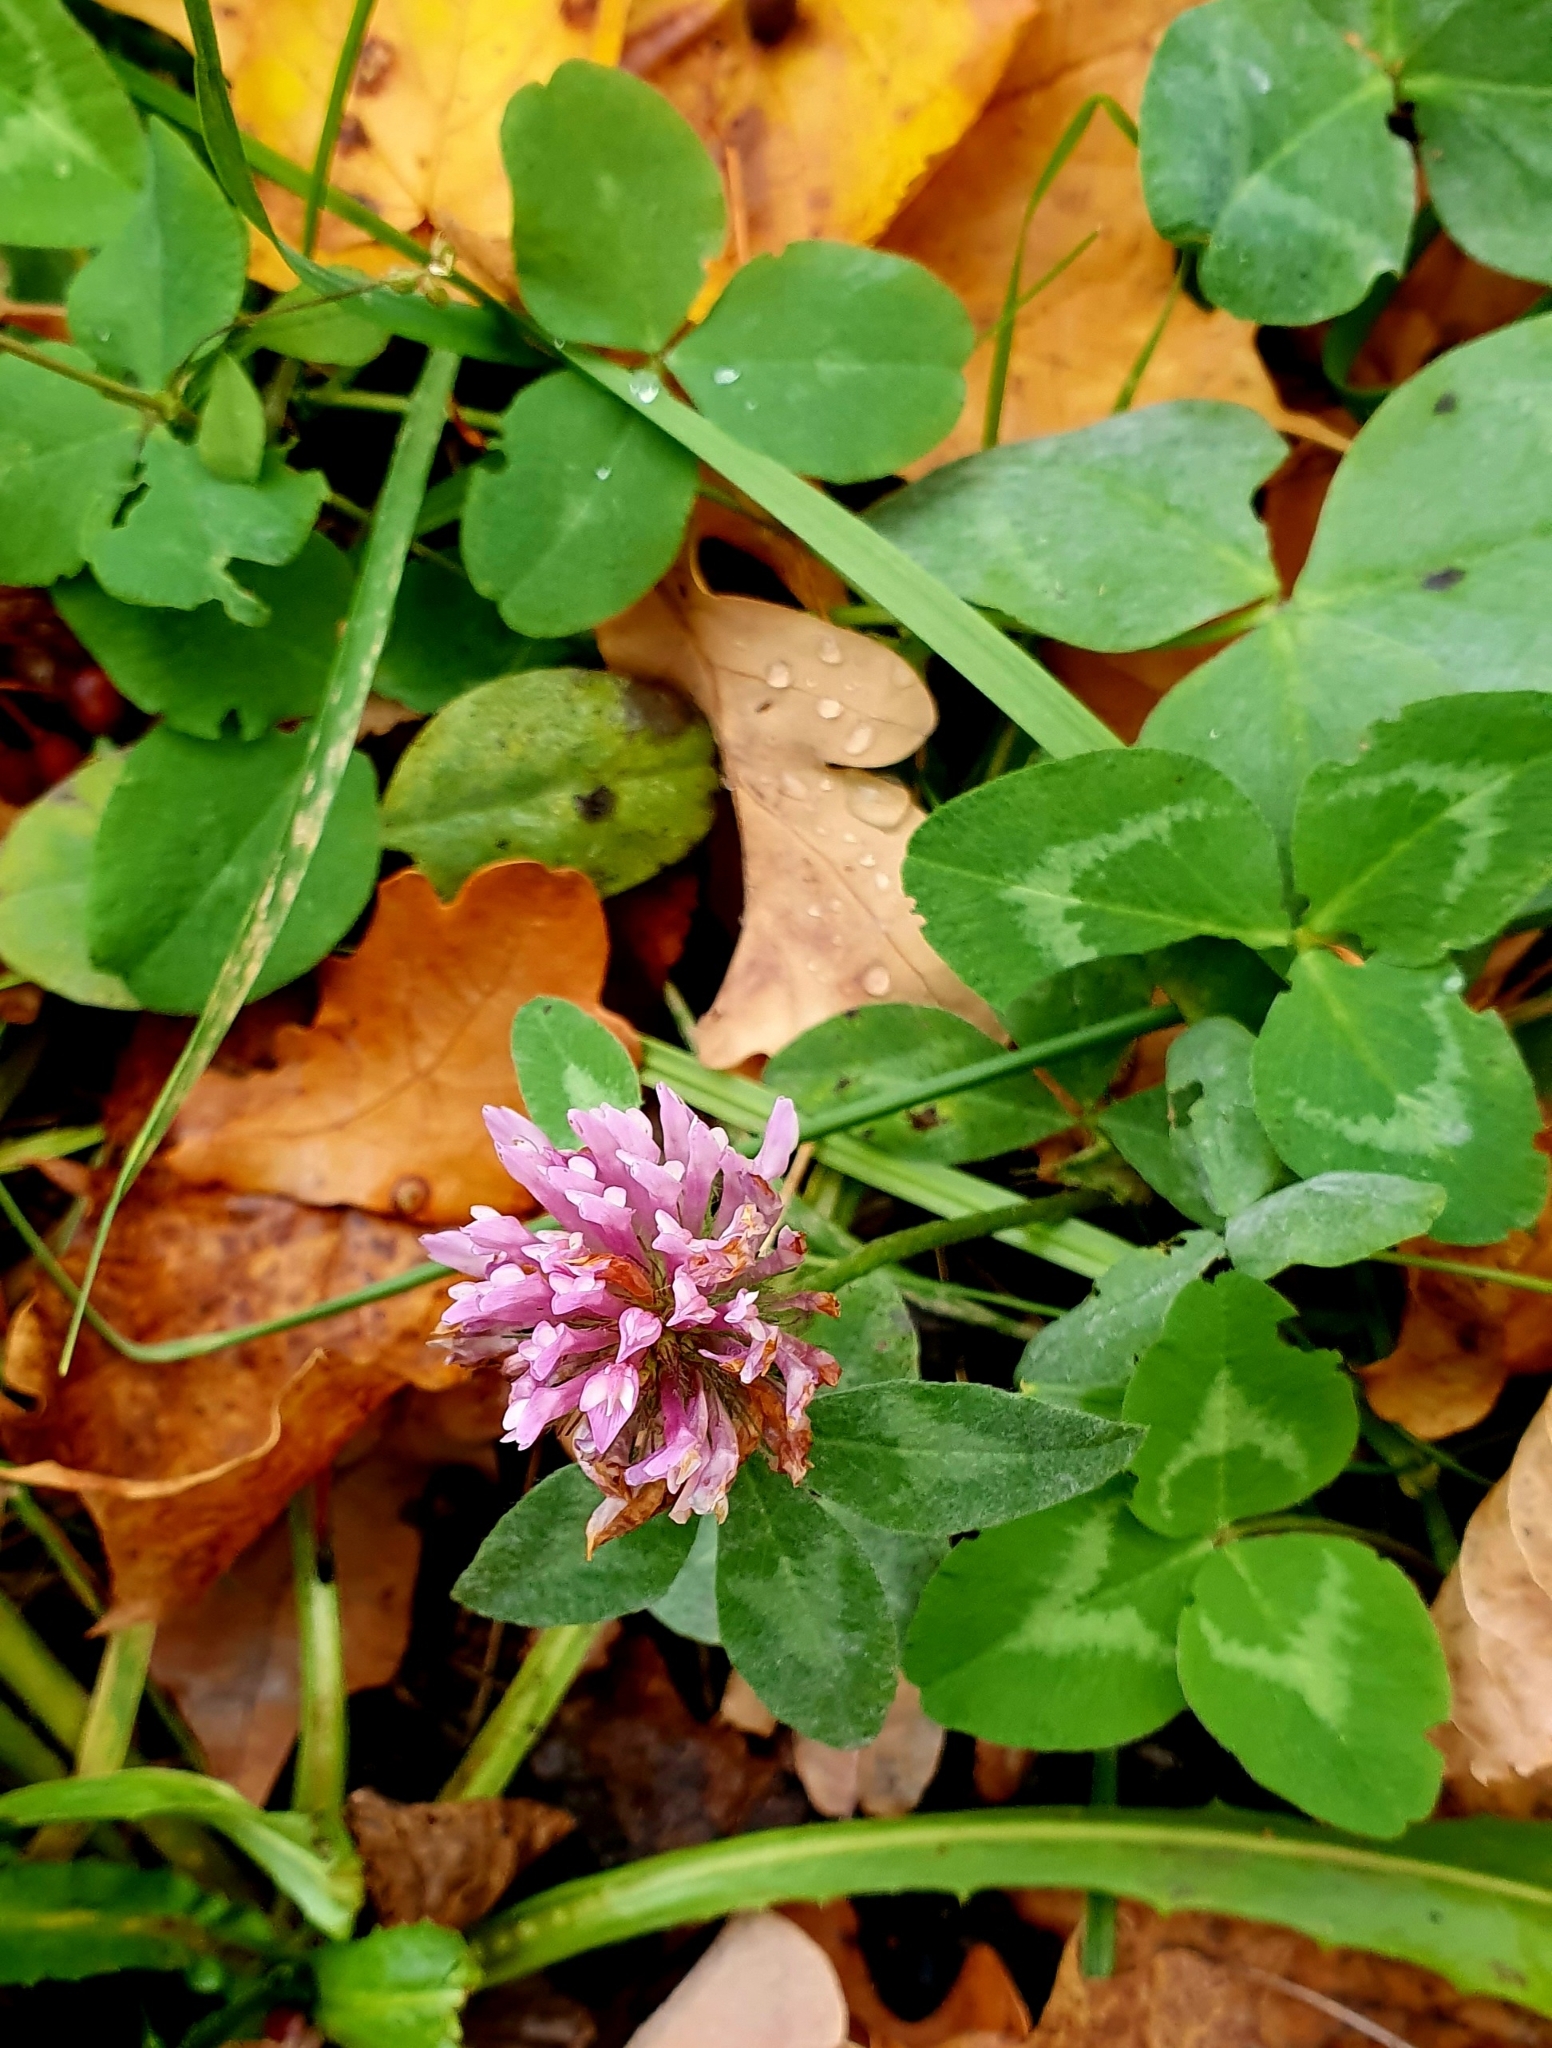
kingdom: Plantae
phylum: Tracheophyta
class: Magnoliopsida
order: Fabales
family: Fabaceae
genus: Trifolium
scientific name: Trifolium pratense
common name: Red clover
